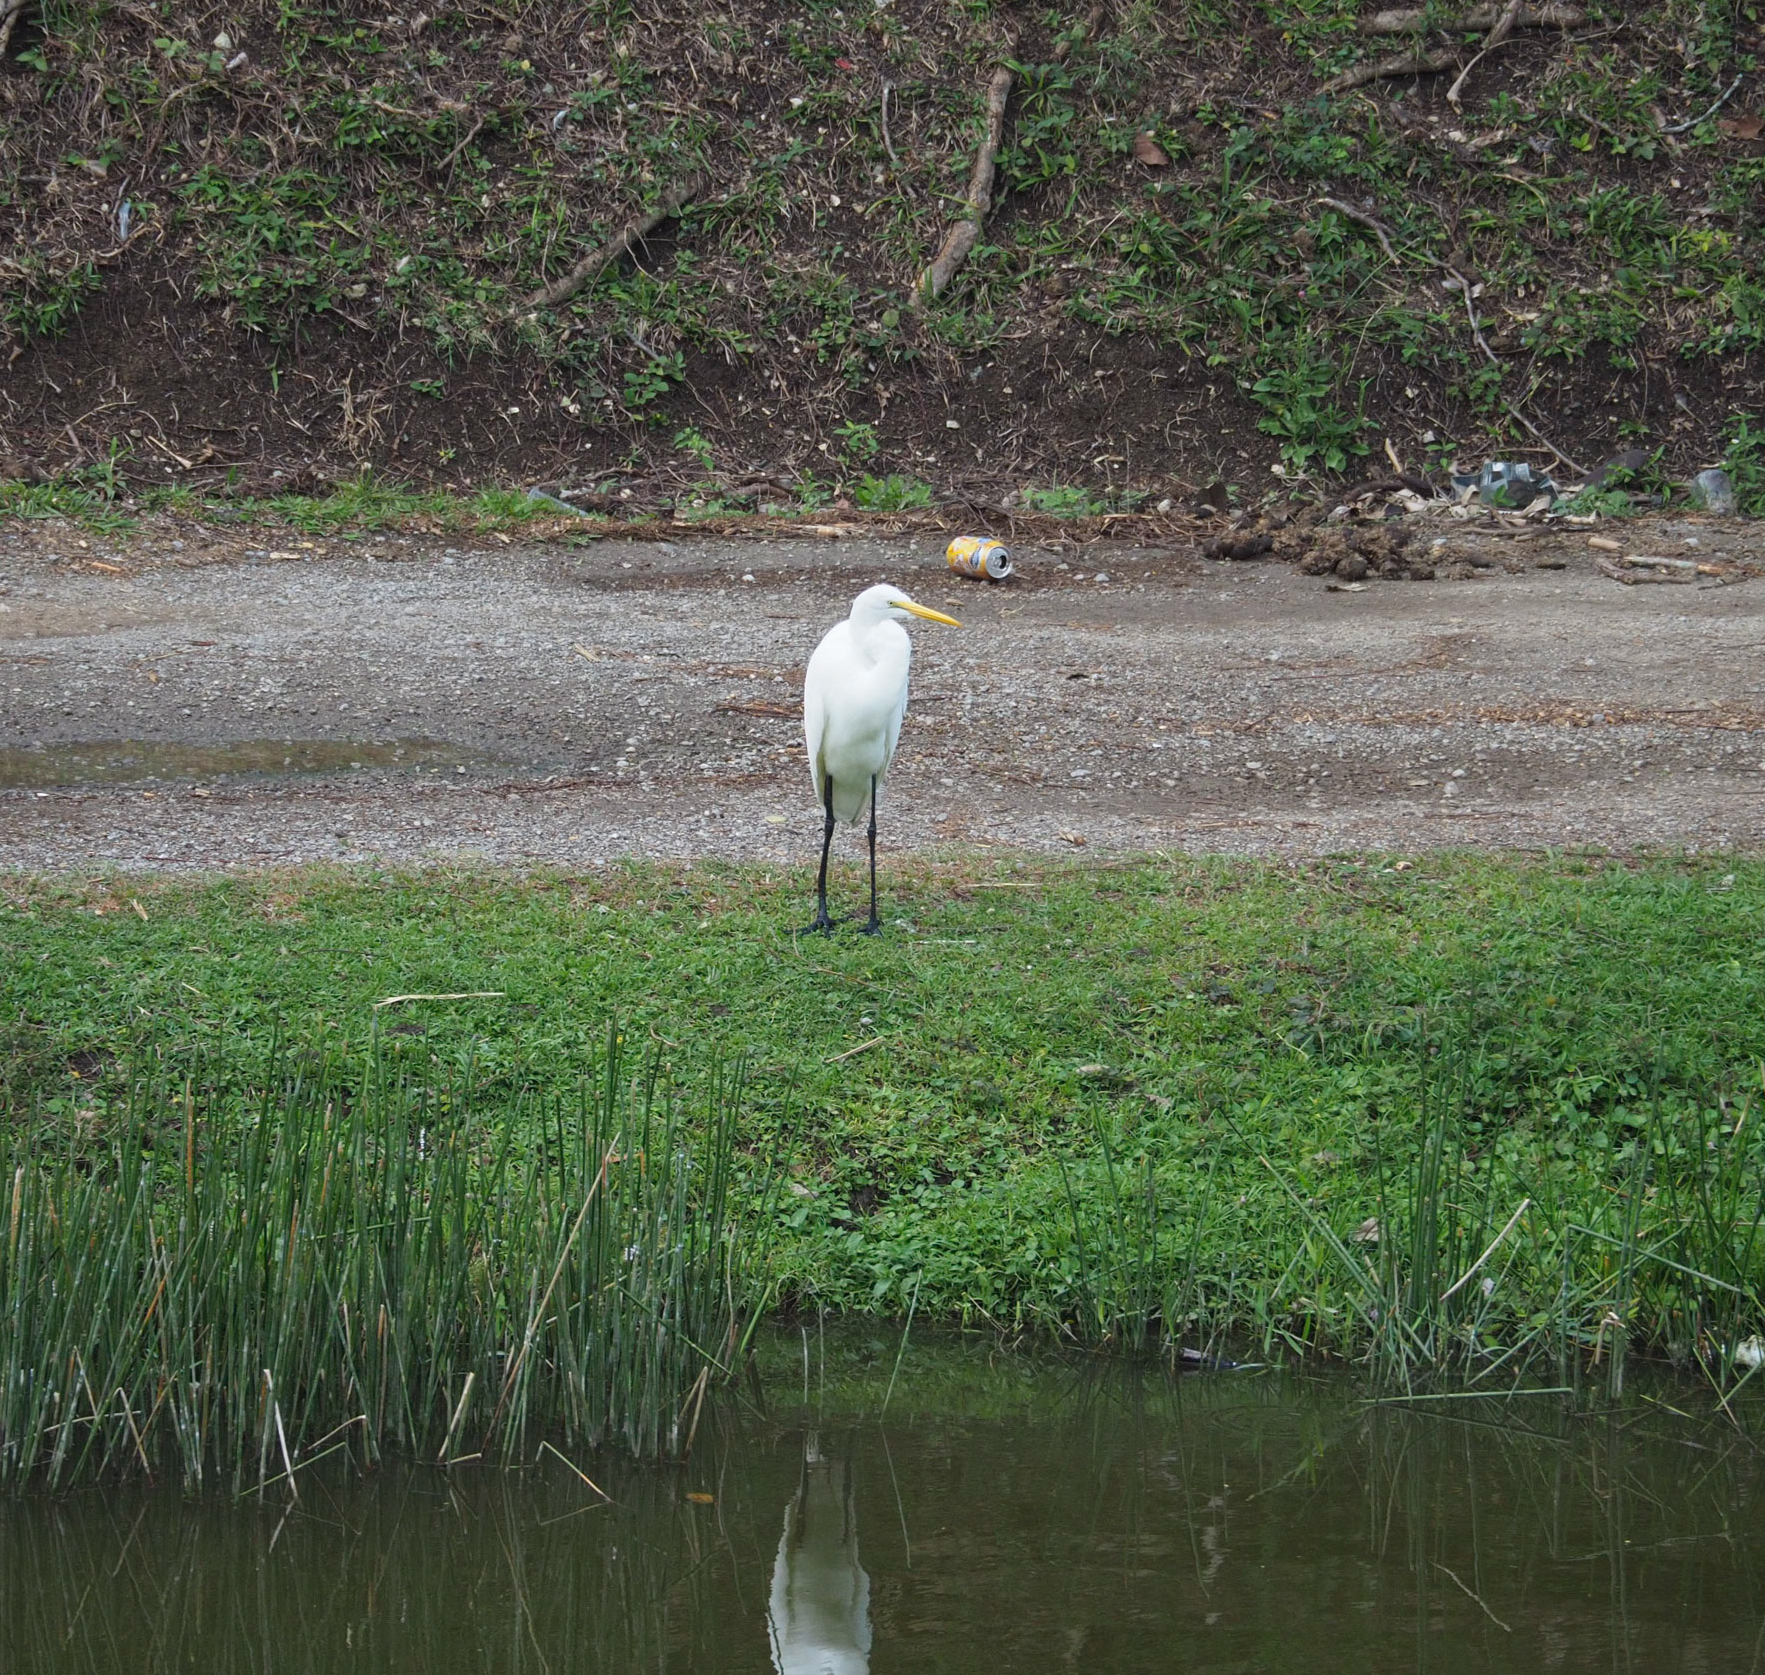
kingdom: Animalia
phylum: Chordata
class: Aves
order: Pelecaniformes
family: Ardeidae
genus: Ardea
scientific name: Ardea alba
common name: Great egret
